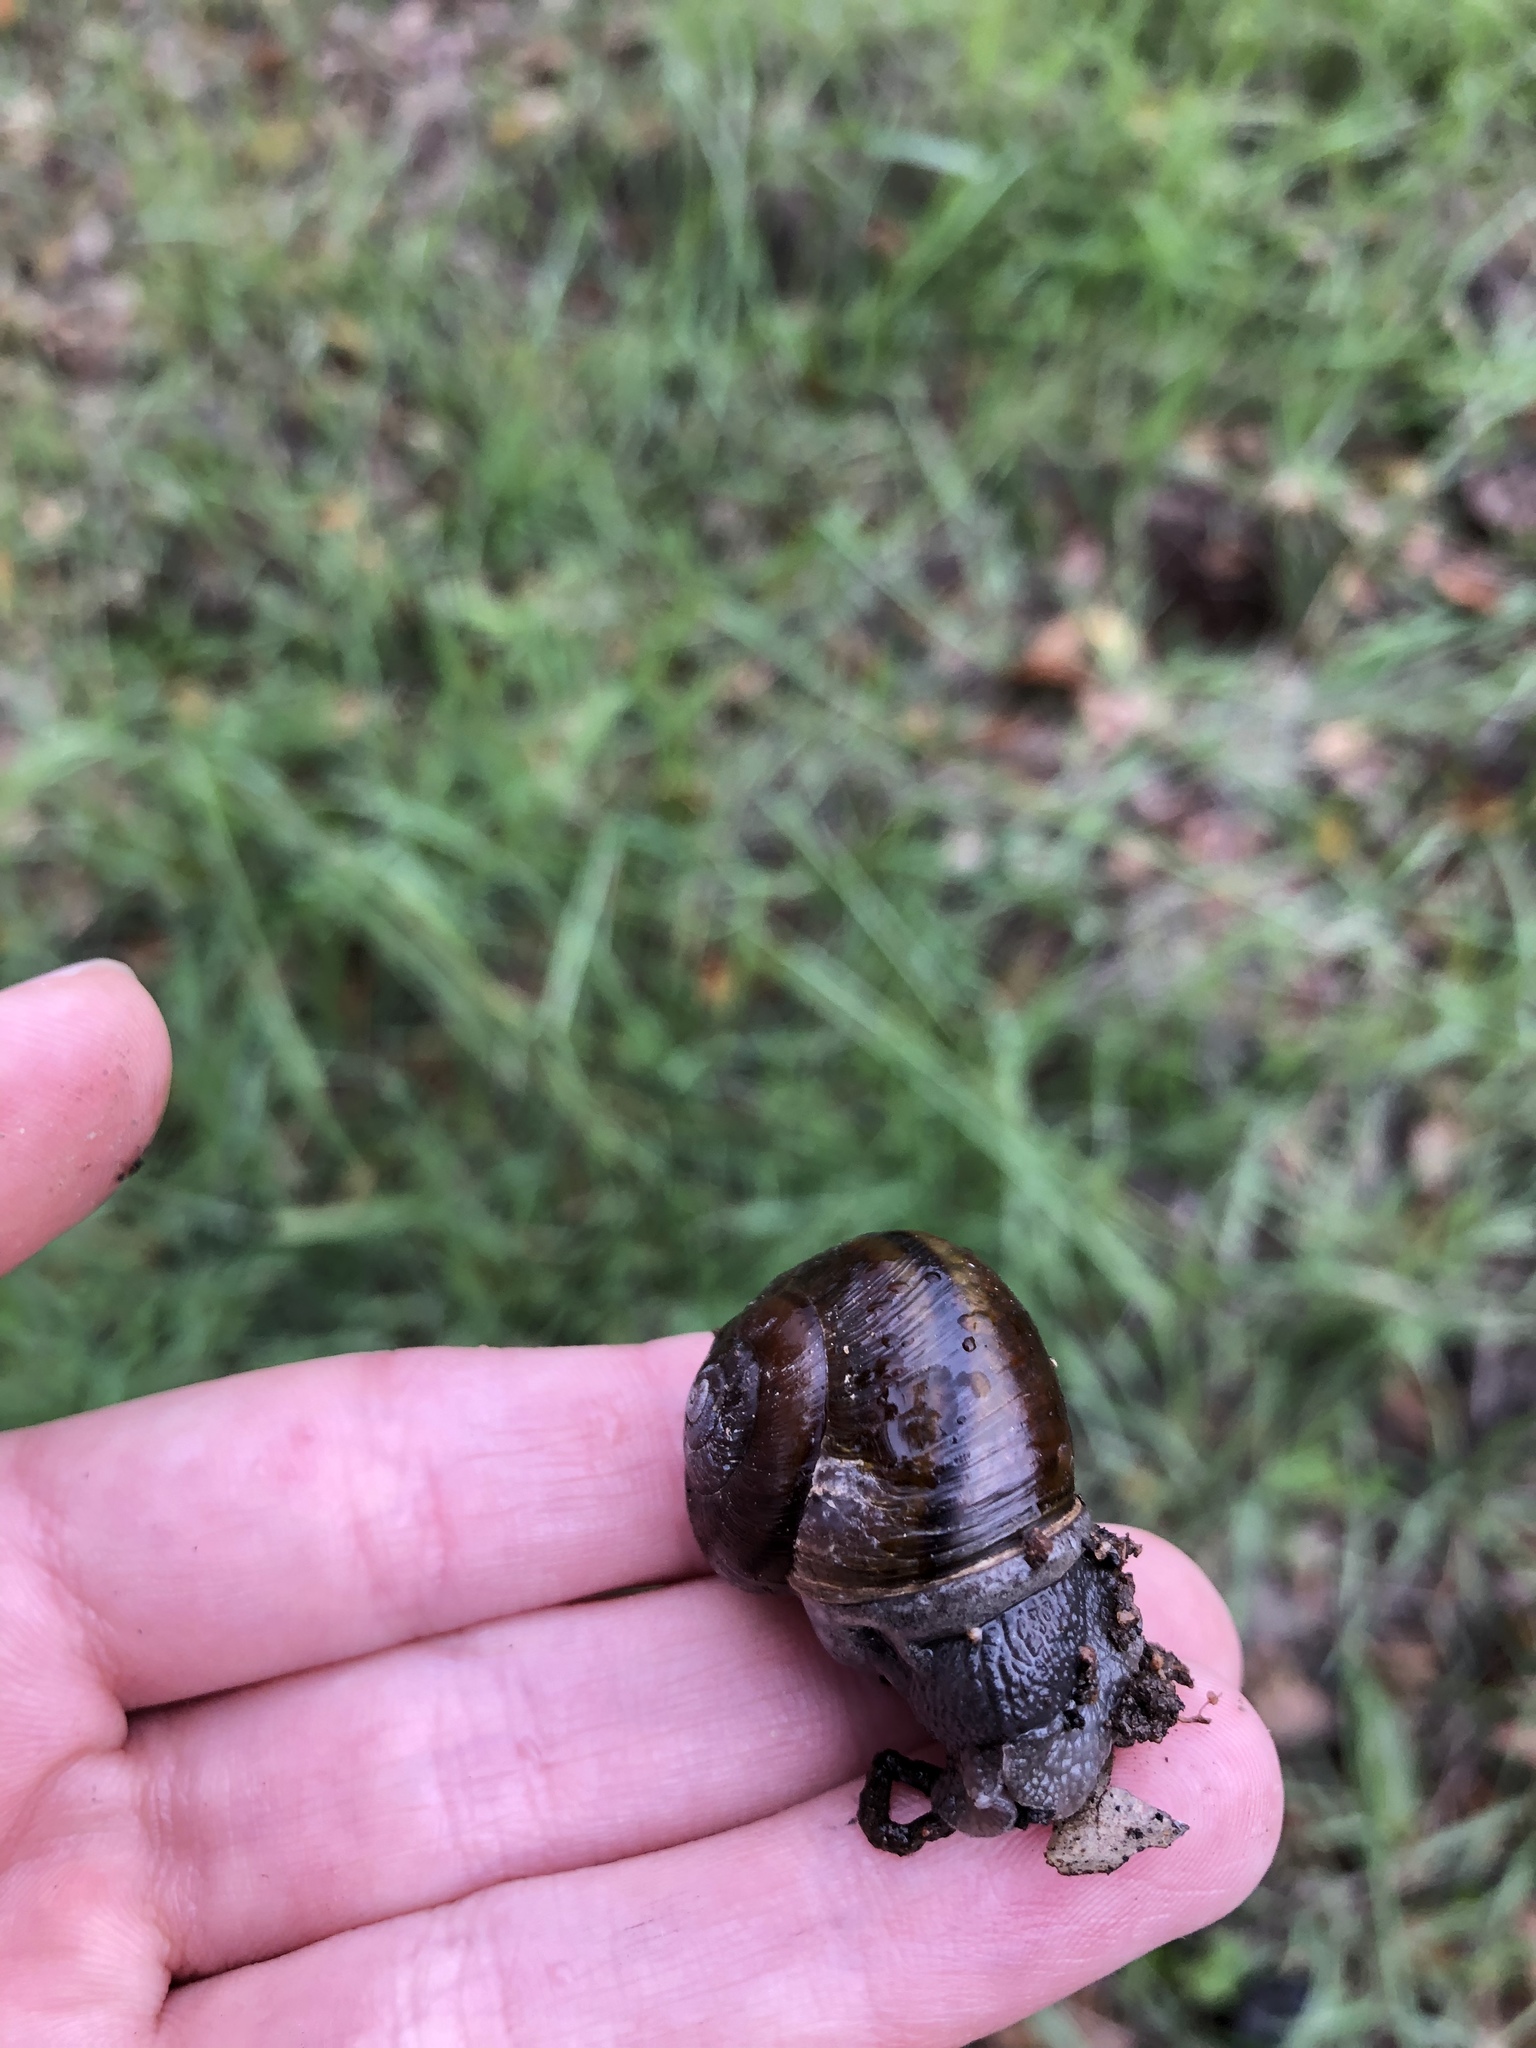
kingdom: Animalia
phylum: Mollusca
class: Gastropoda
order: Stylommatophora
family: Xanthonychidae
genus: Helminthoglypta
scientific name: Helminthoglypta tudiculata
